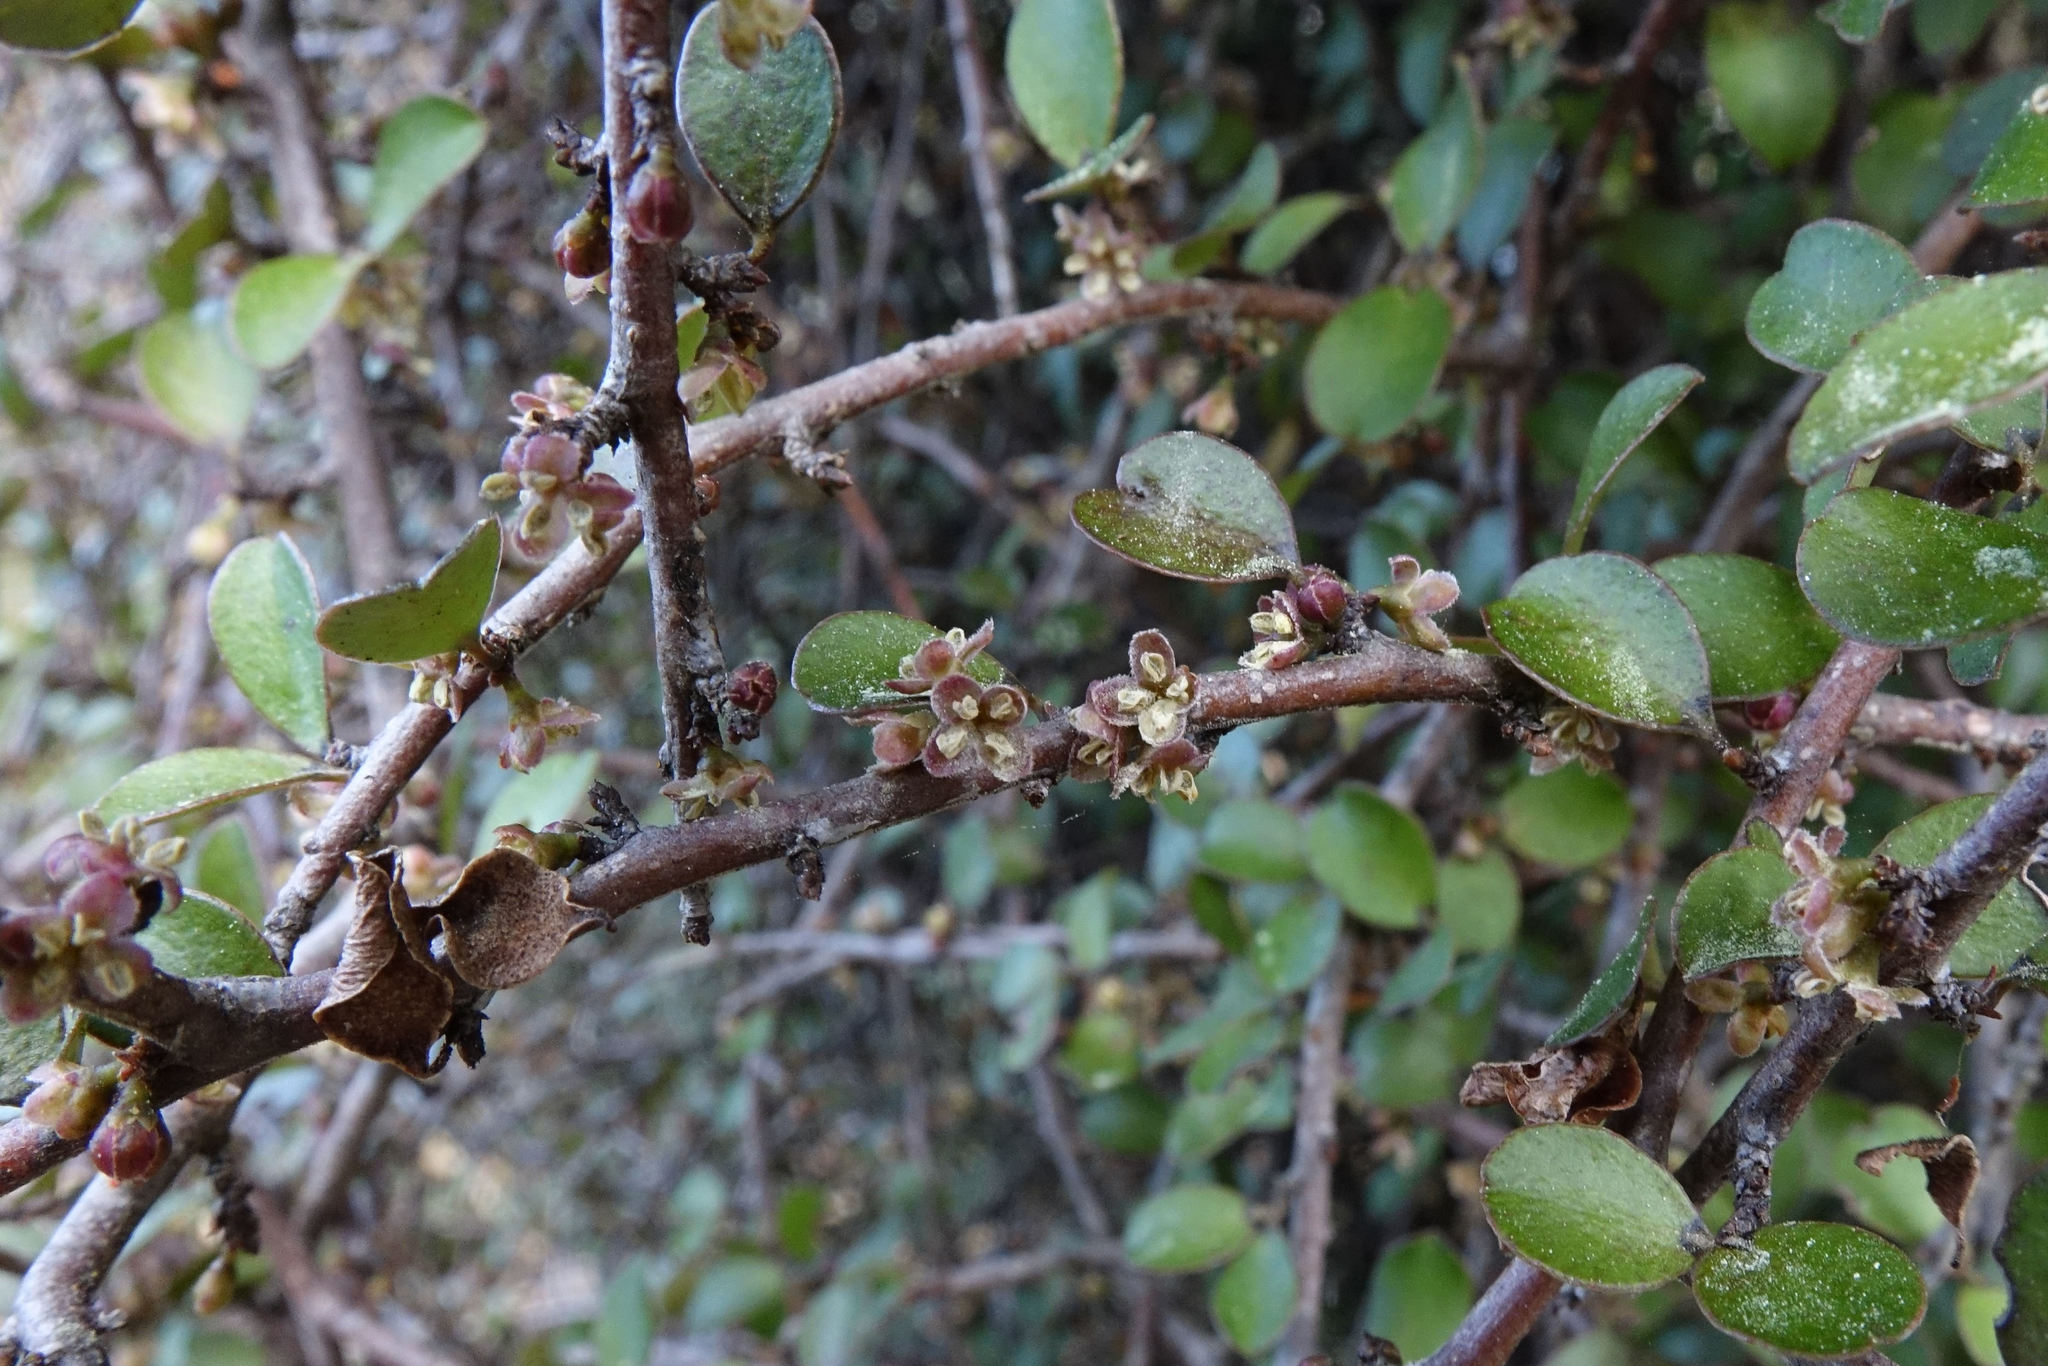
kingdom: Plantae
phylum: Tracheophyta
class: Magnoliopsida
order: Ericales
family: Primulaceae
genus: Myrsine
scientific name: Myrsine divaricata
